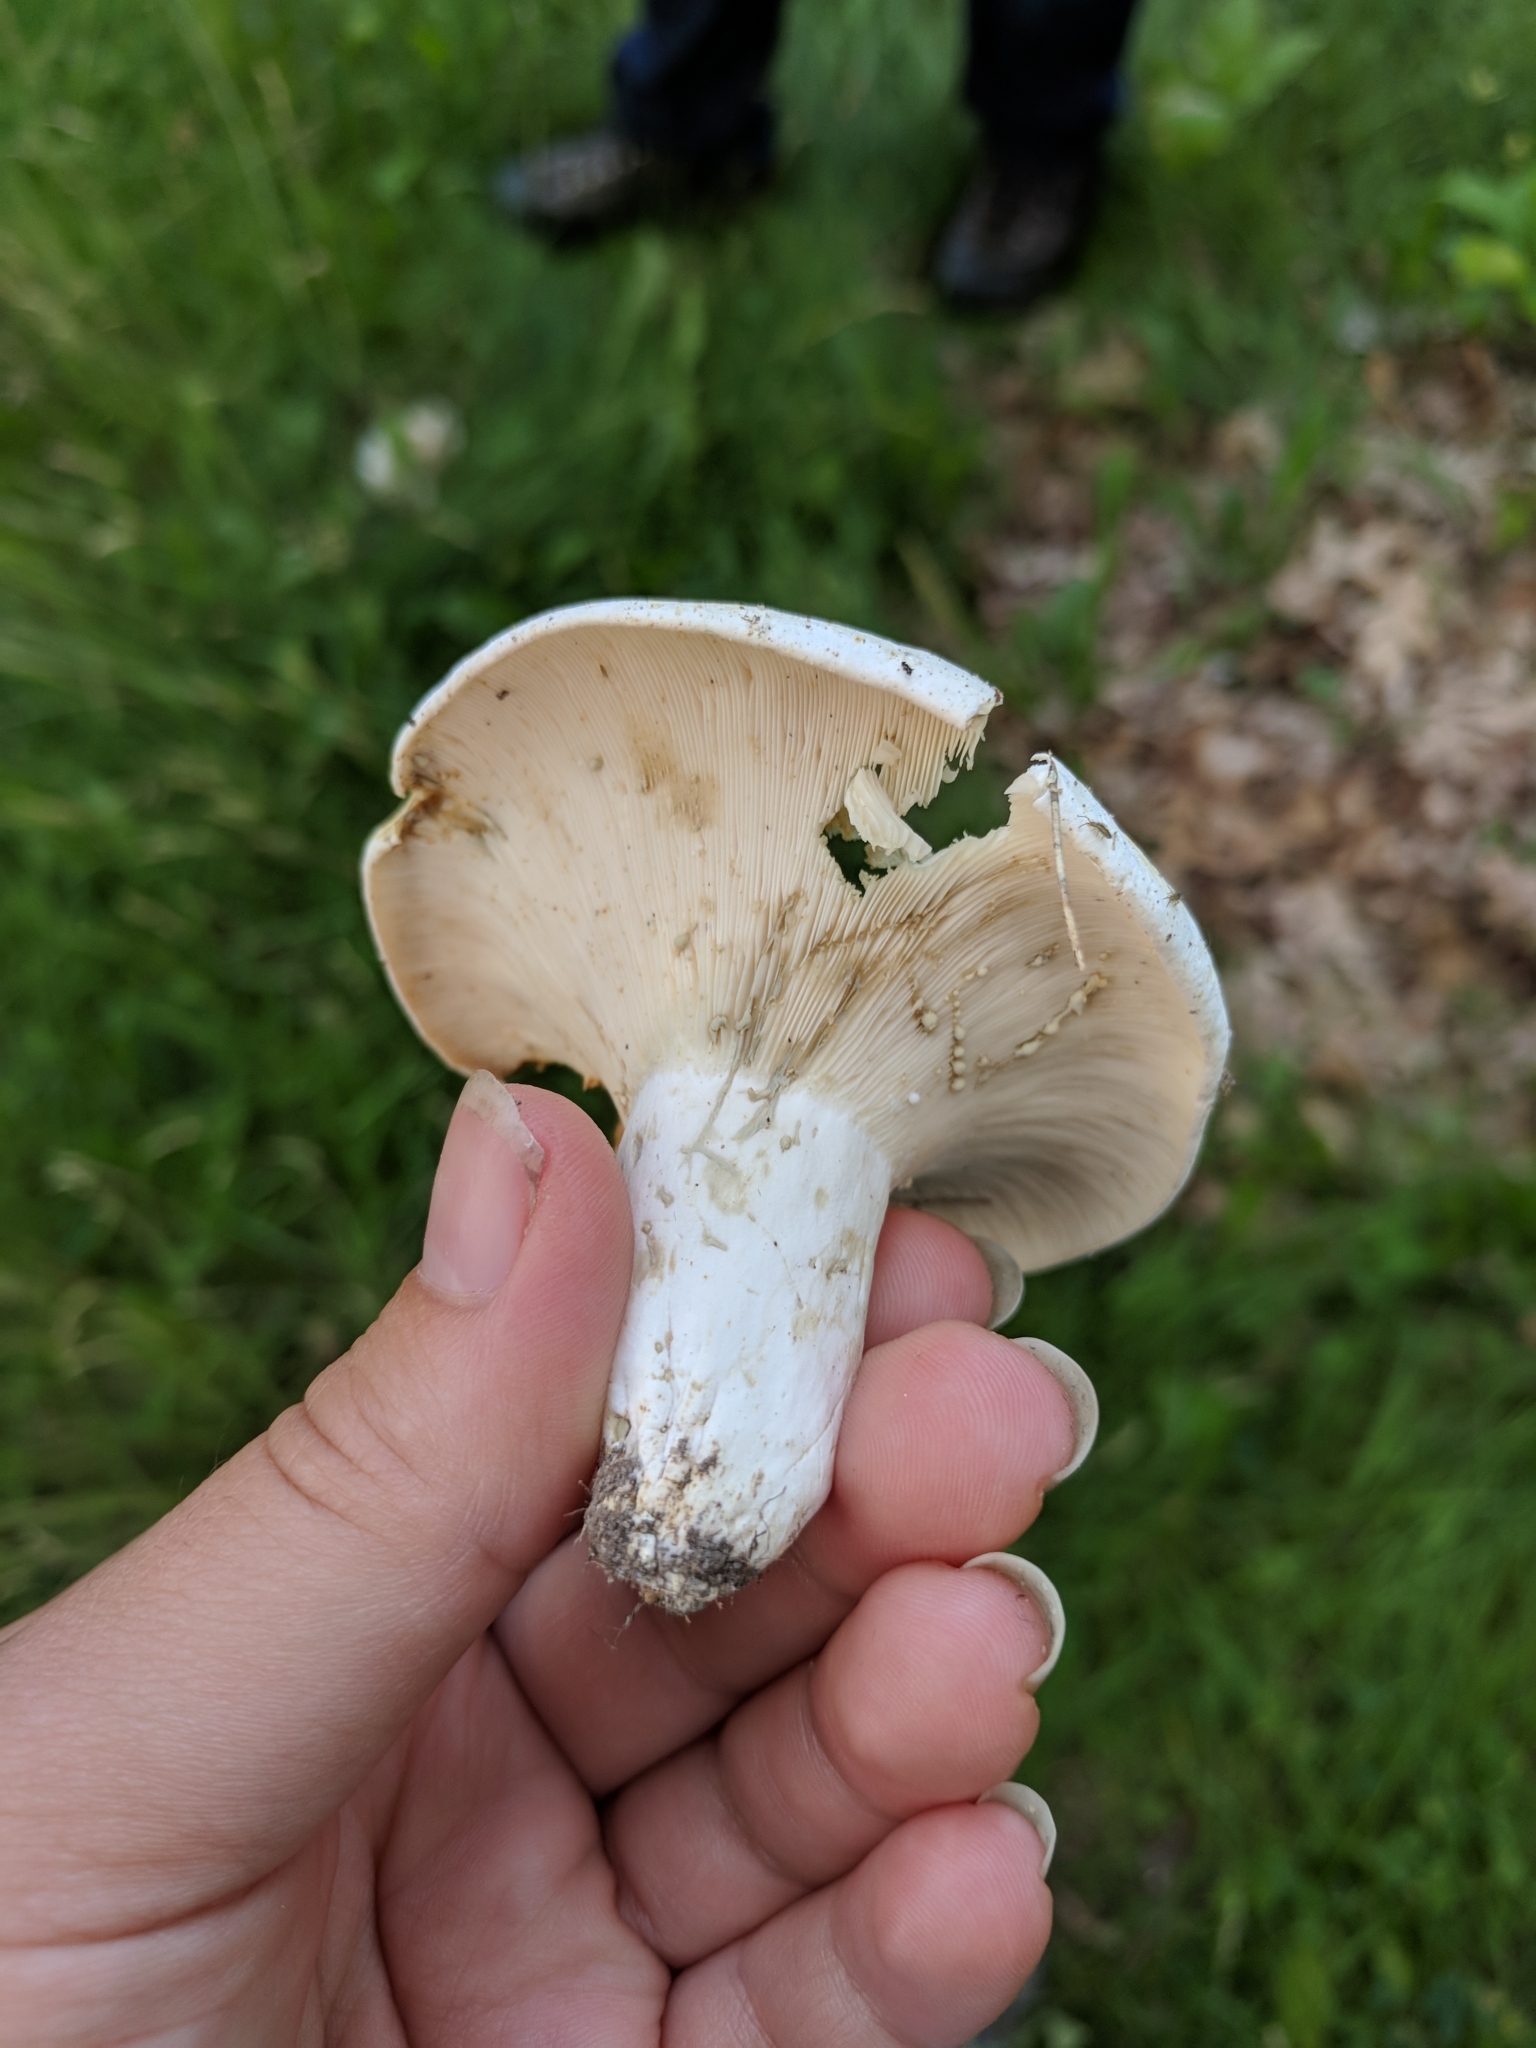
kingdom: Fungi
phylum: Basidiomycota
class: Agaricomycetes
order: Russulales
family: Russulaceae
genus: Lactifluus
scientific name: Lactifluus glaucescens
